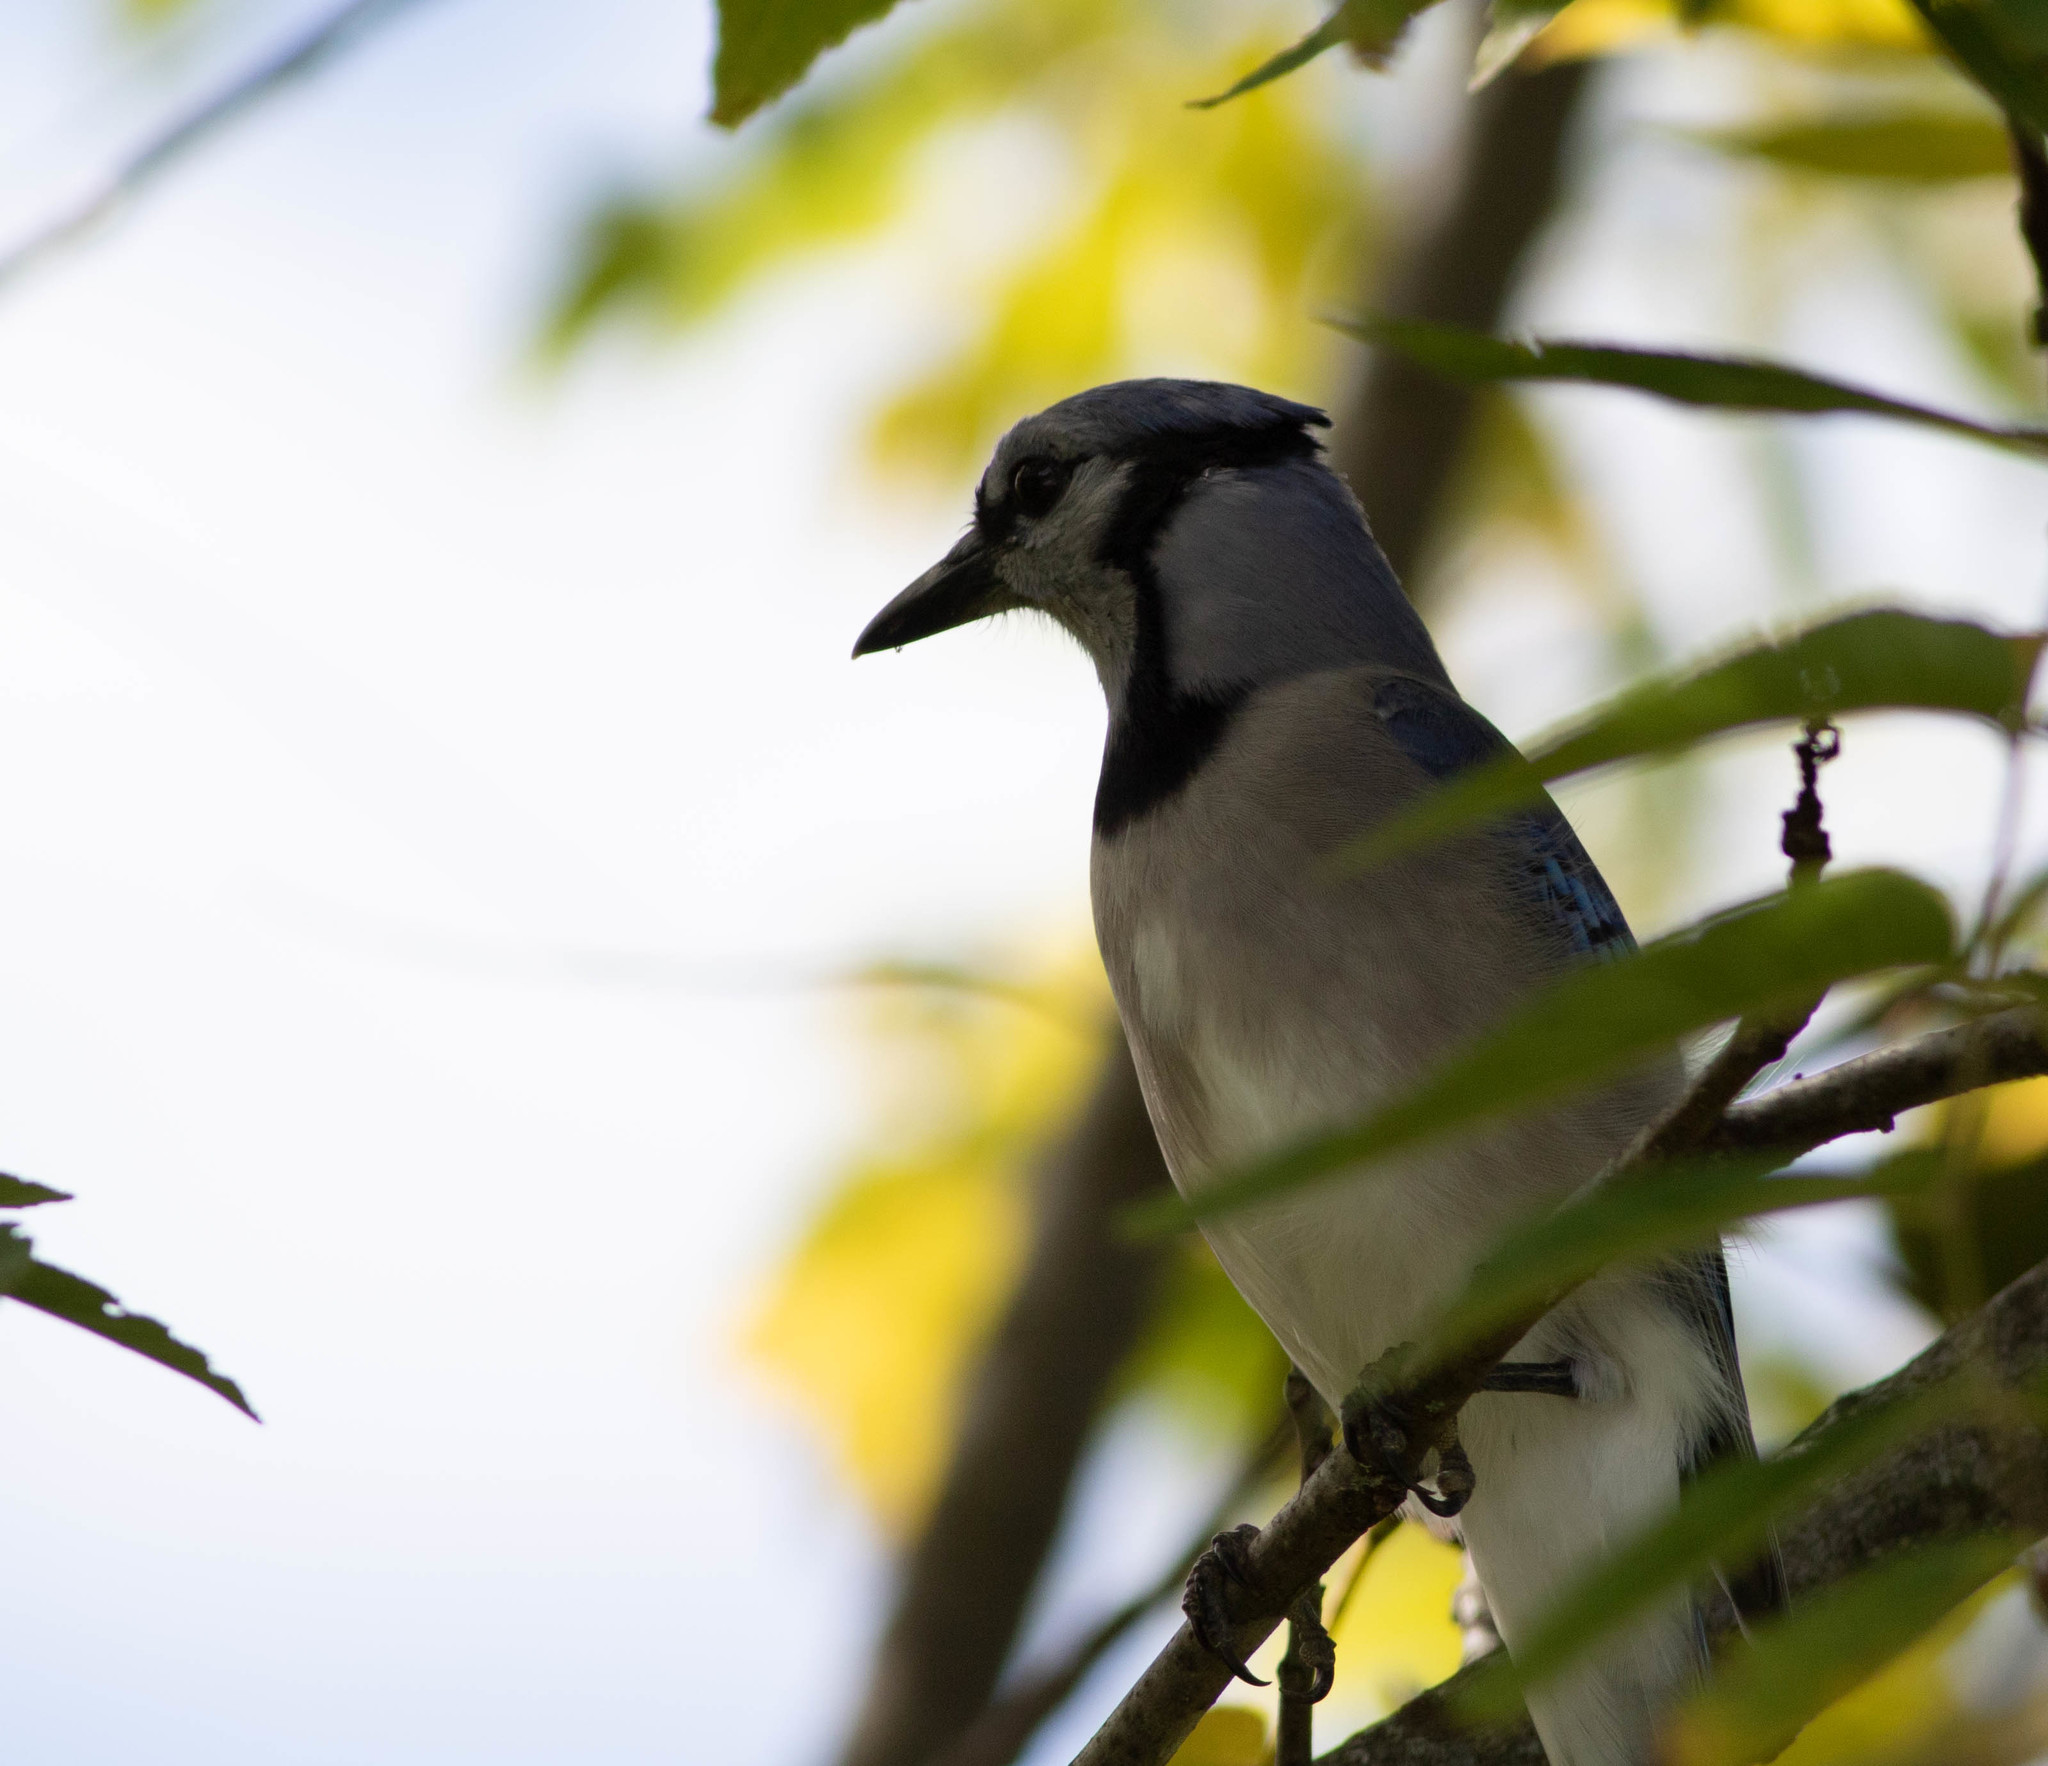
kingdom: Animalia
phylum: Chordata
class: Aves
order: Passeriformes
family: Corvidae
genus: Cyanocitta
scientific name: Cyanocitta cristata
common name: Blue jay
